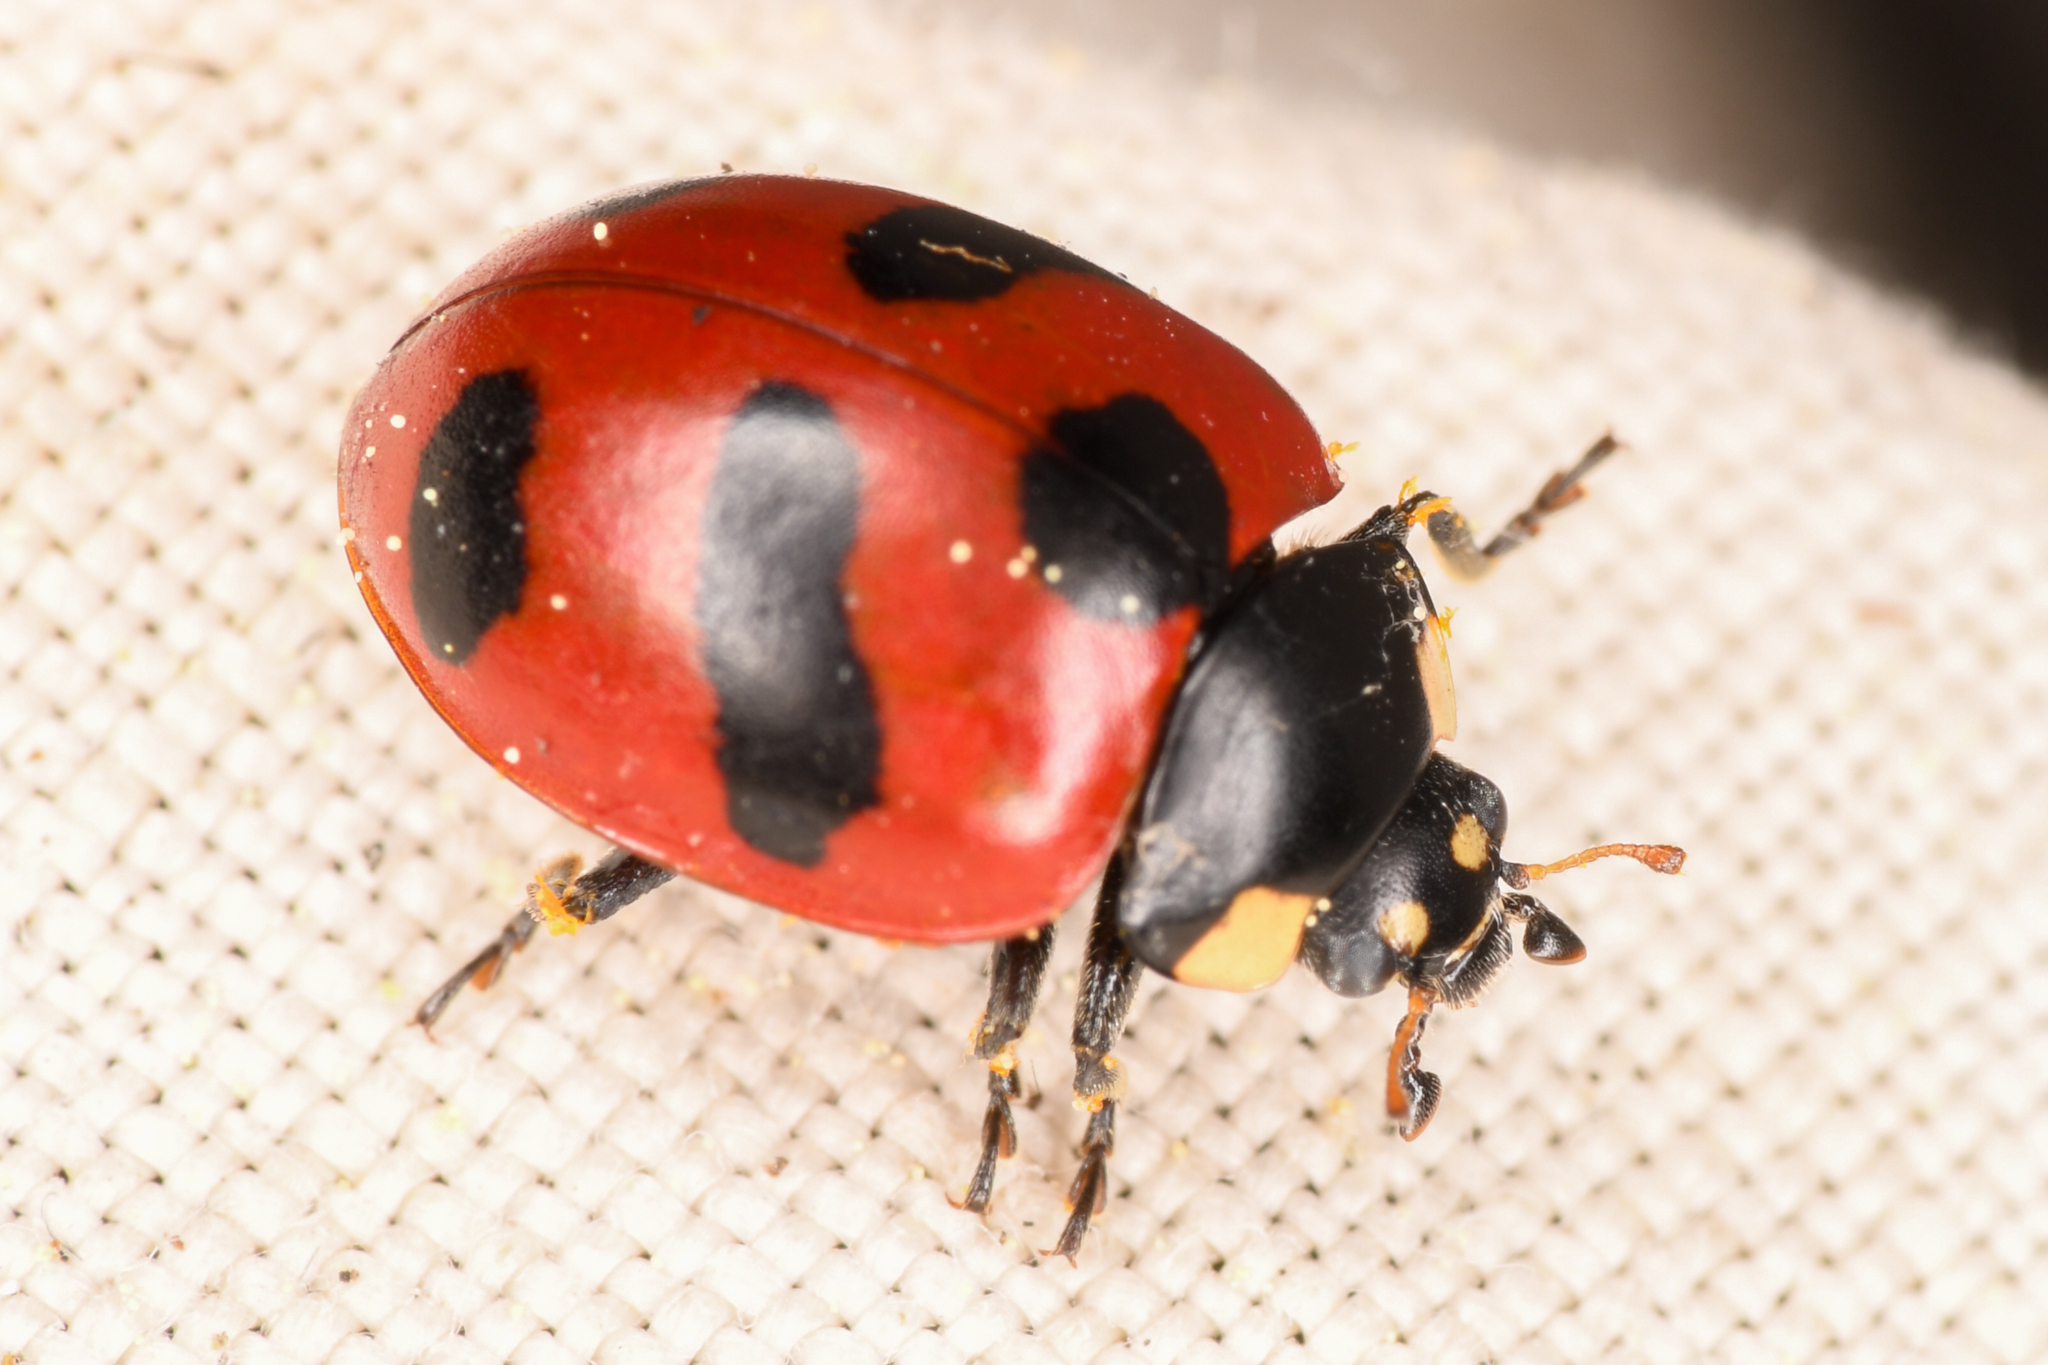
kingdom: Animalia
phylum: Arthropoda
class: Insecta
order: Coleoptera
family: Coccinellidae
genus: Coccinella
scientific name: Coccinella monticola
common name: Mountain lady beetle
